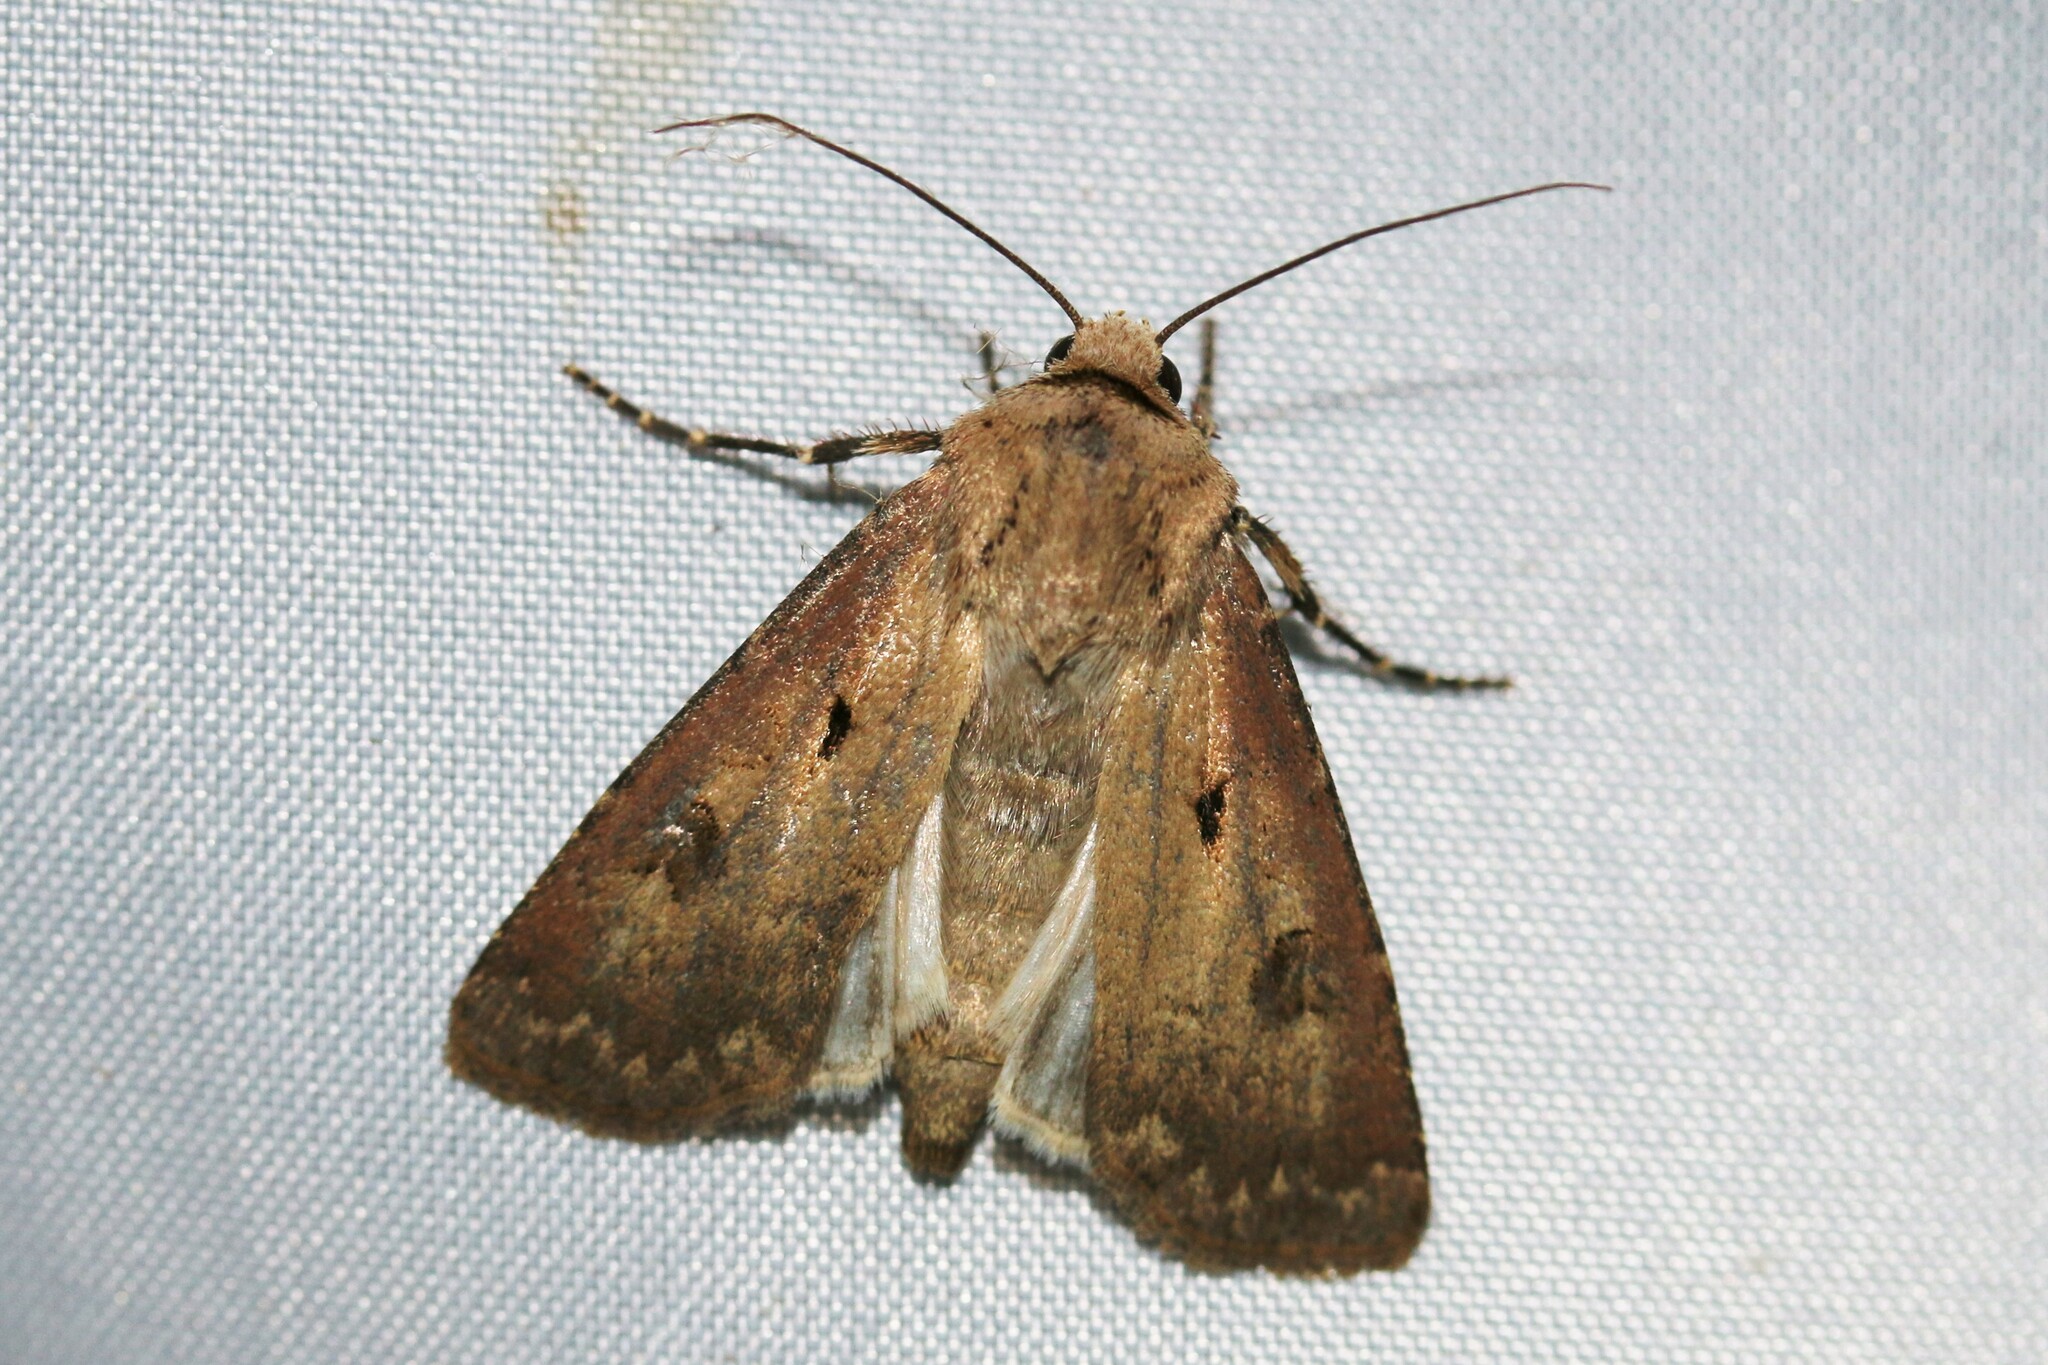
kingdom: Animalia
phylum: Arthropoda
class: Insecta
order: Lepidoptera
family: Noctuidae
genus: Agrotis
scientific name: Agrotis exclamationis
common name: Heart and dart
